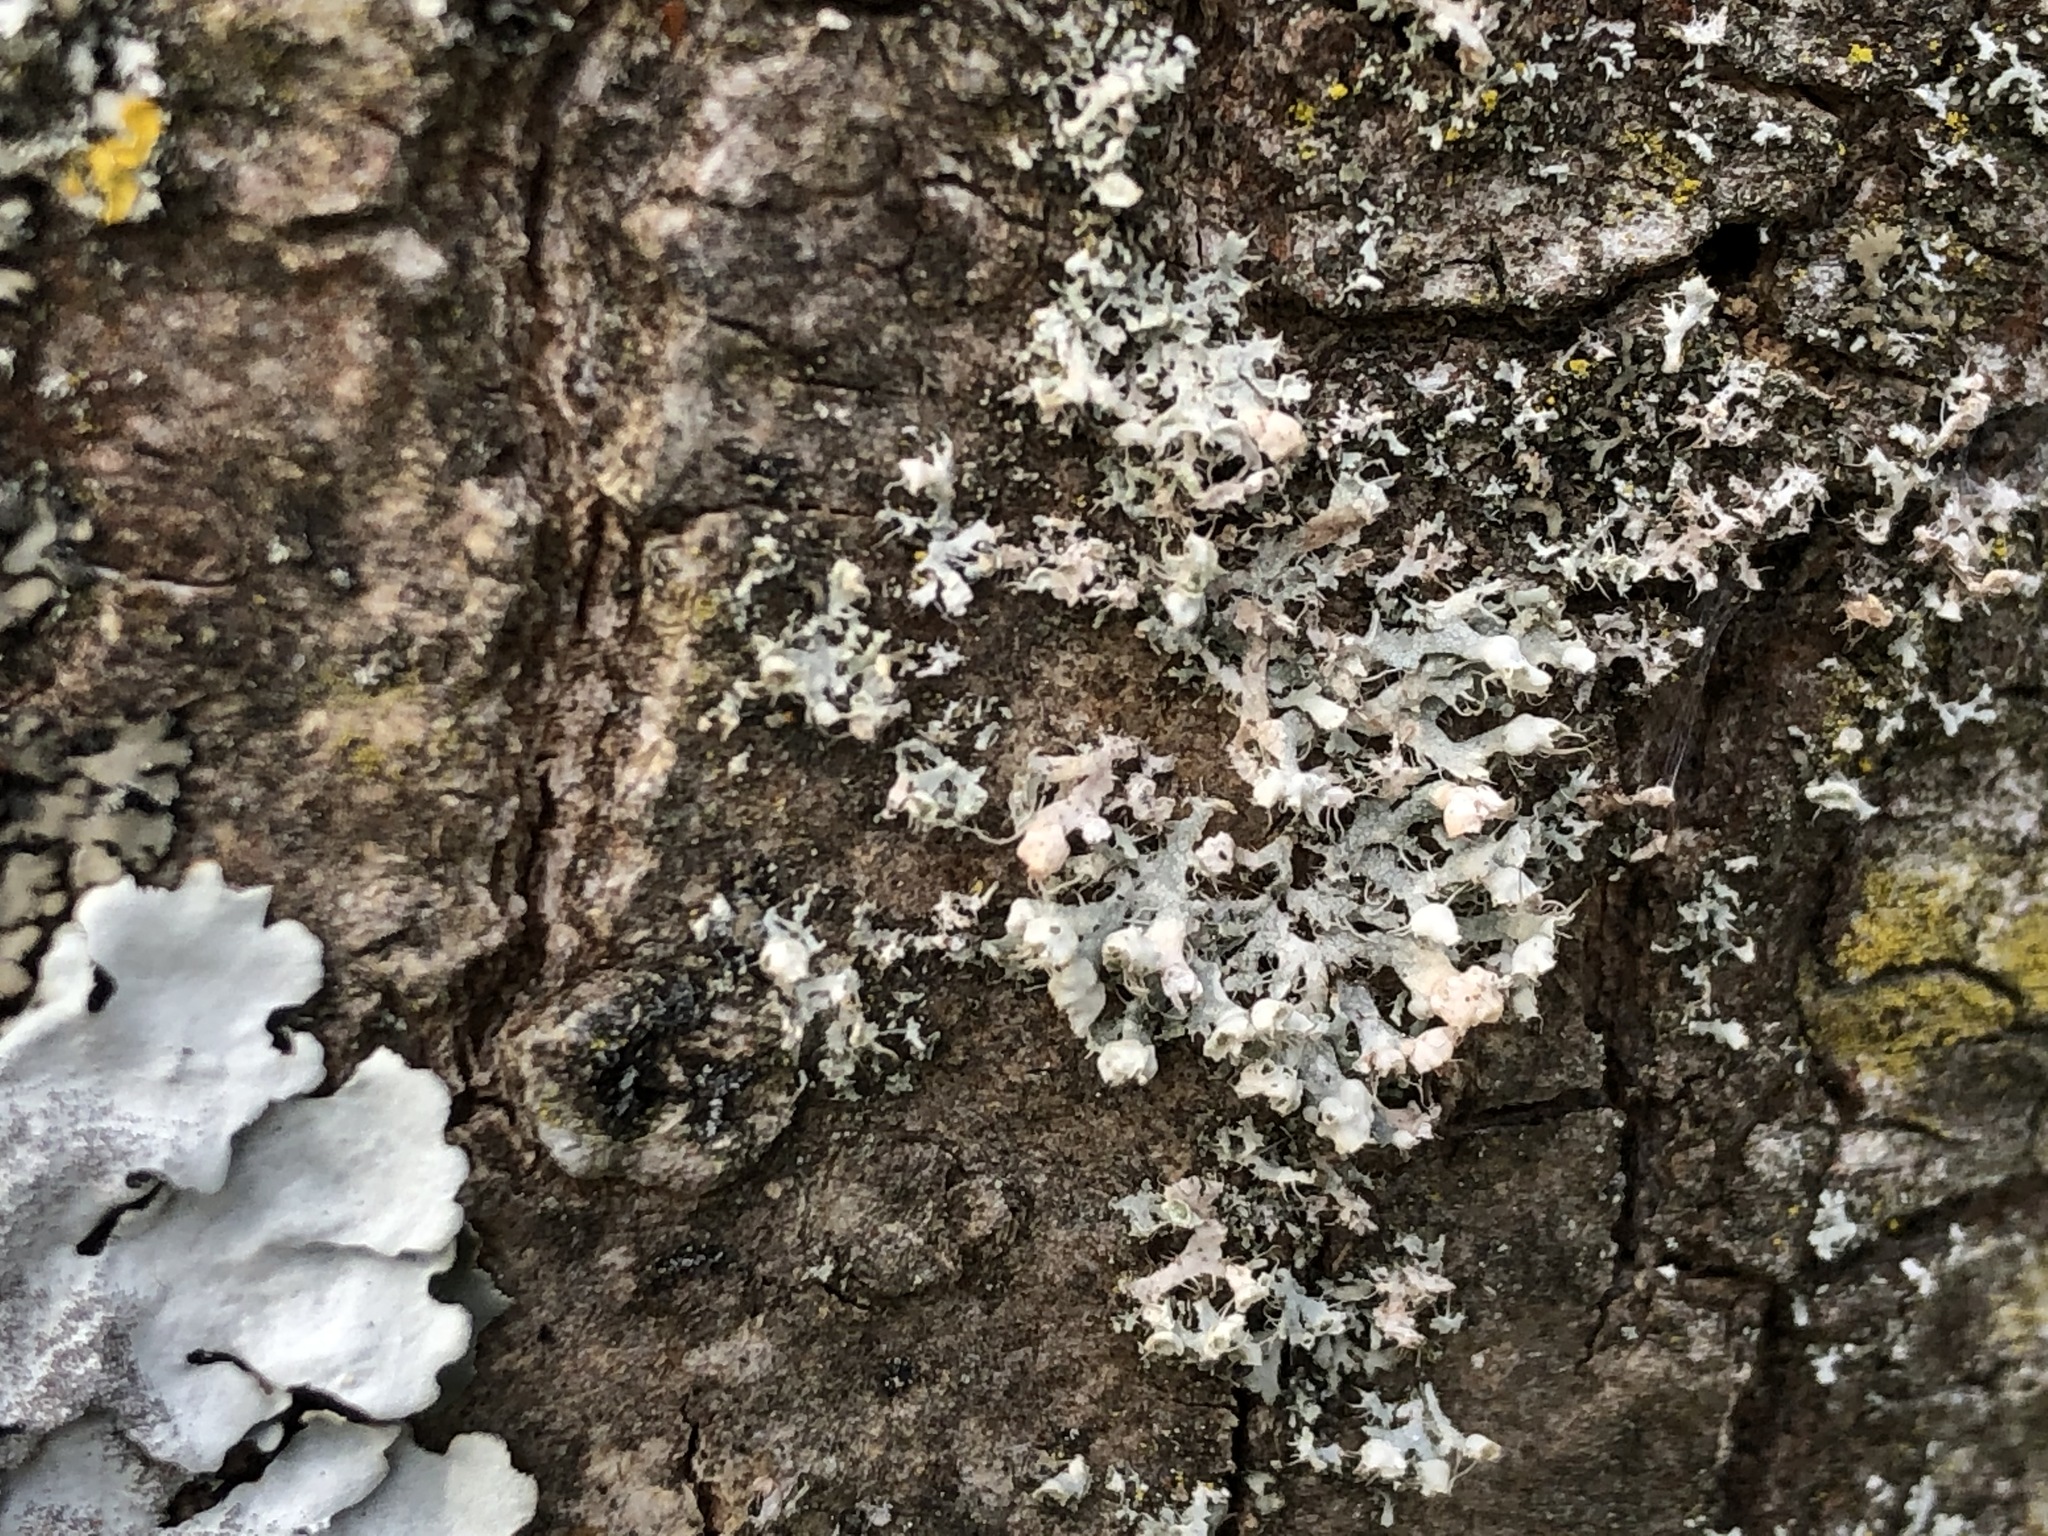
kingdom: Fungi
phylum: Ascomycota
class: Lecanoromycetes
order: Caliciales
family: Physciaceae
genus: Physcia
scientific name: Physcia adscendens
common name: Hooded rosette lichen
